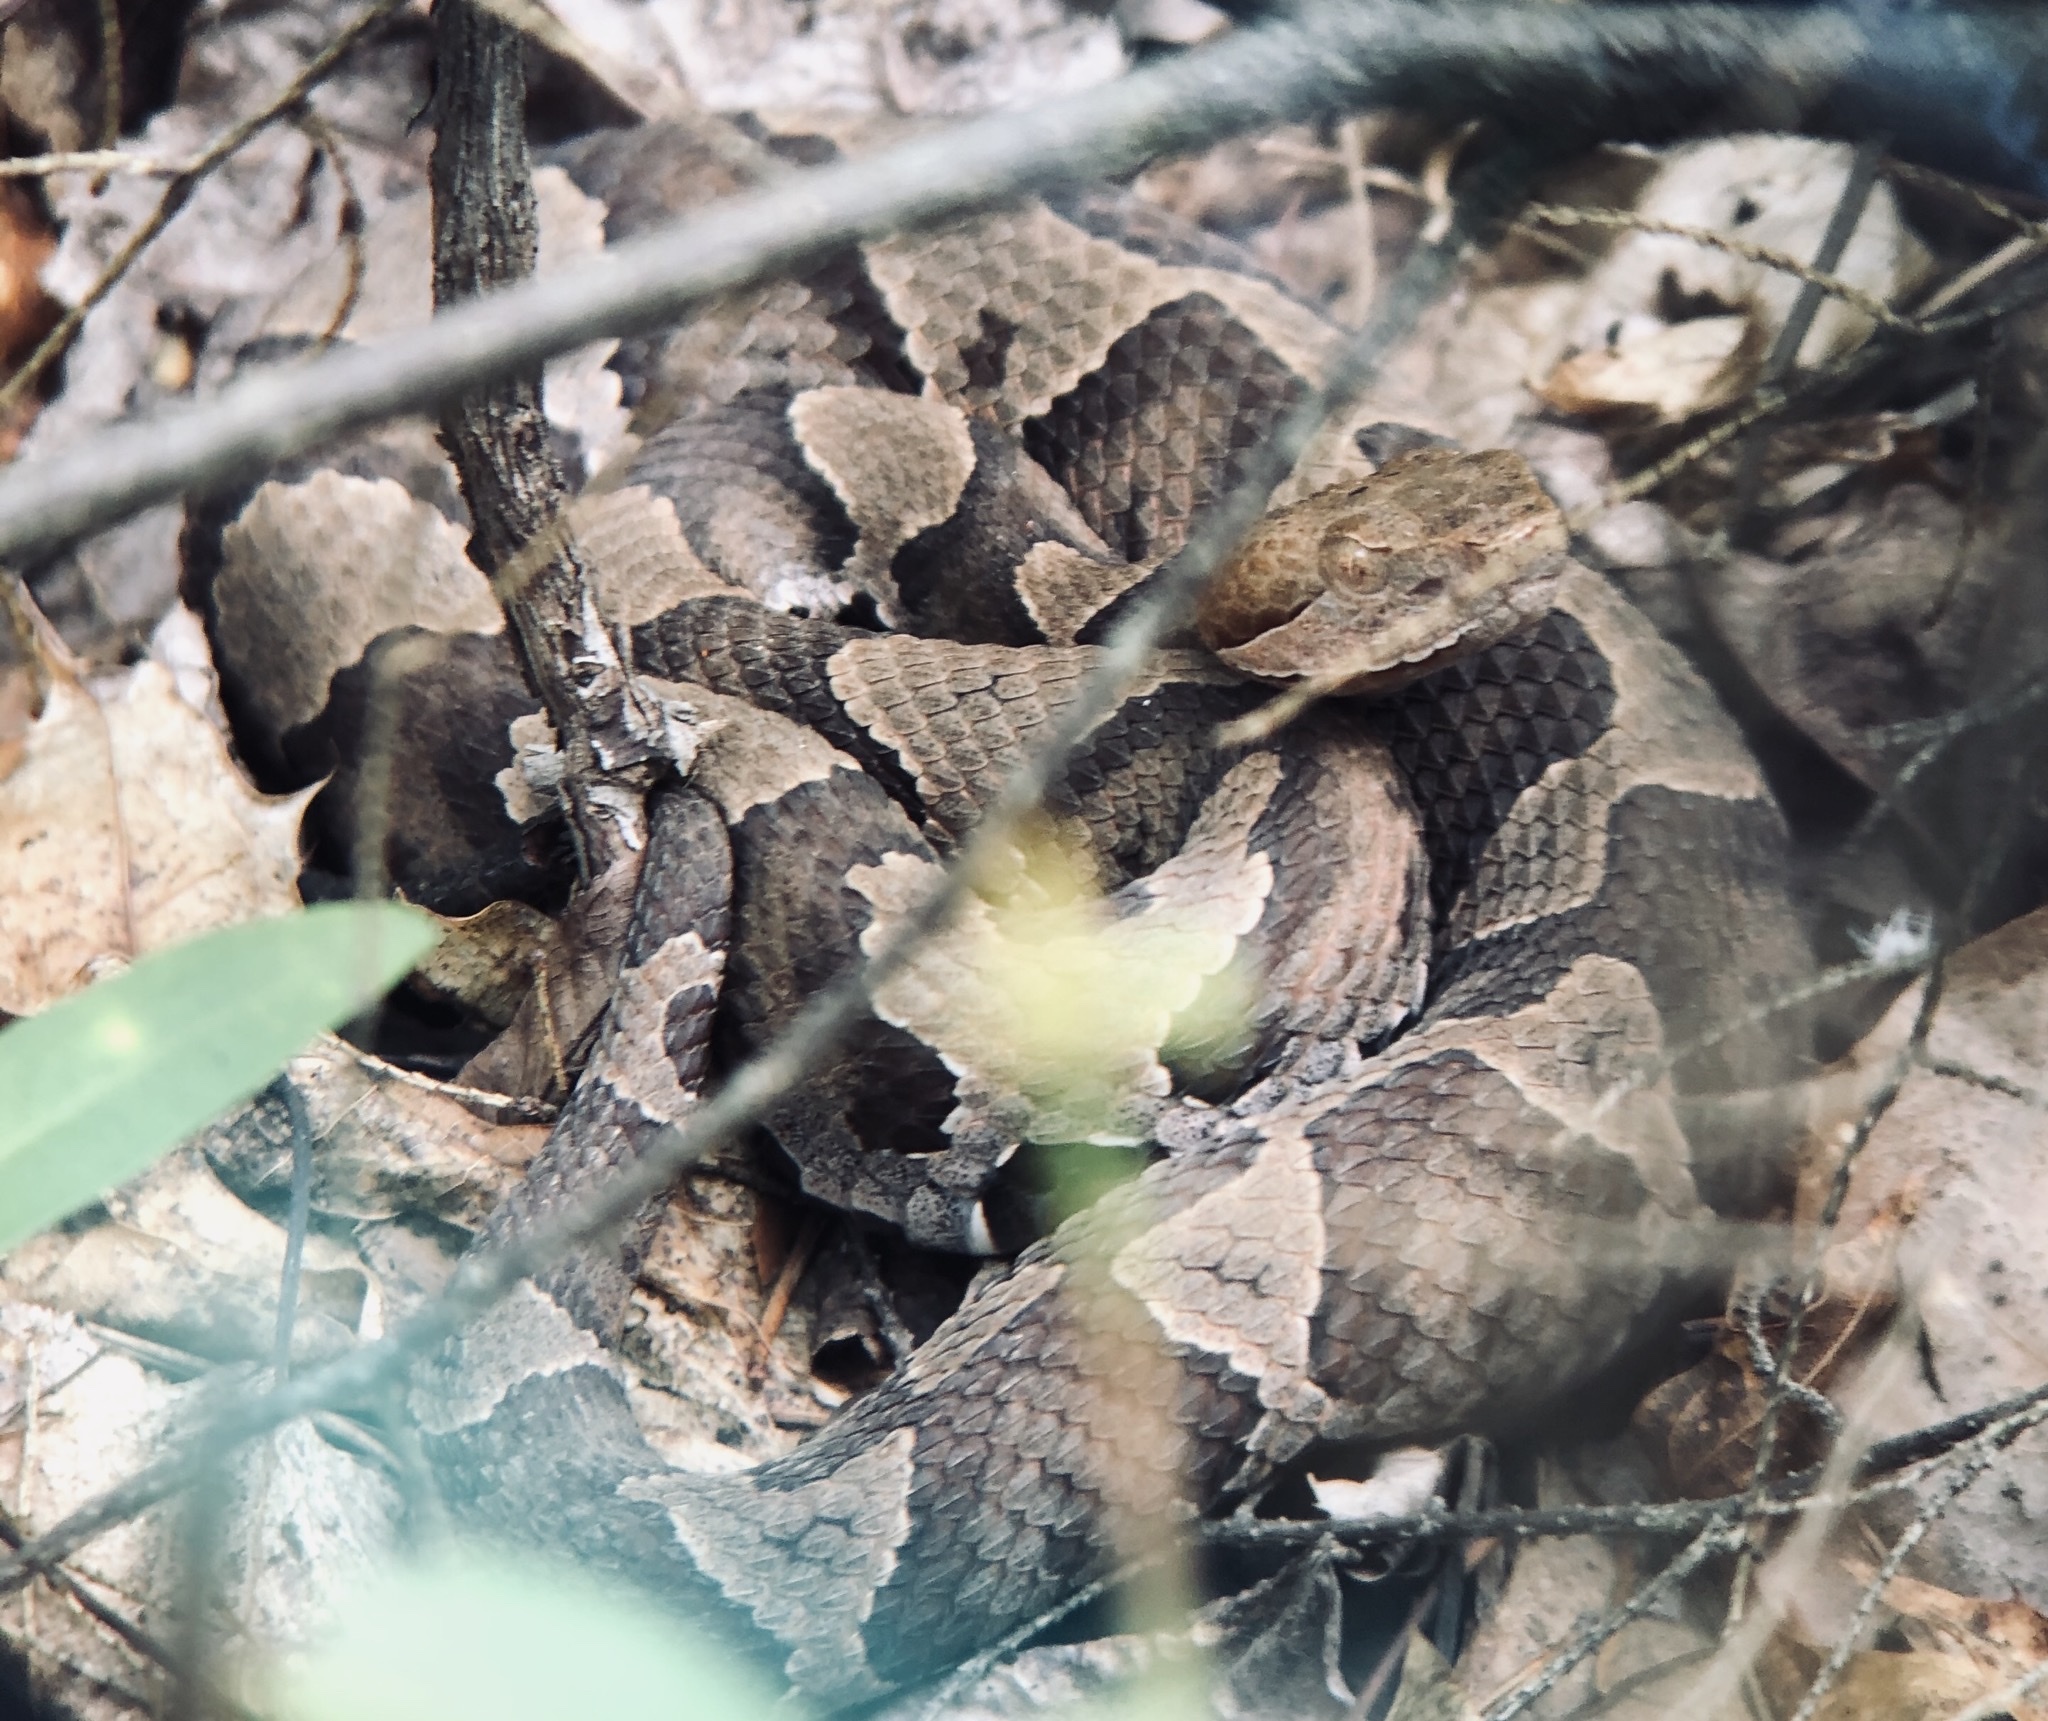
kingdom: Animalia
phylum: Chordata
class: Squamata
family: Viperidae
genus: Agkistrodon
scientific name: Agkistrodon contortrix
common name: Northern copperhead
